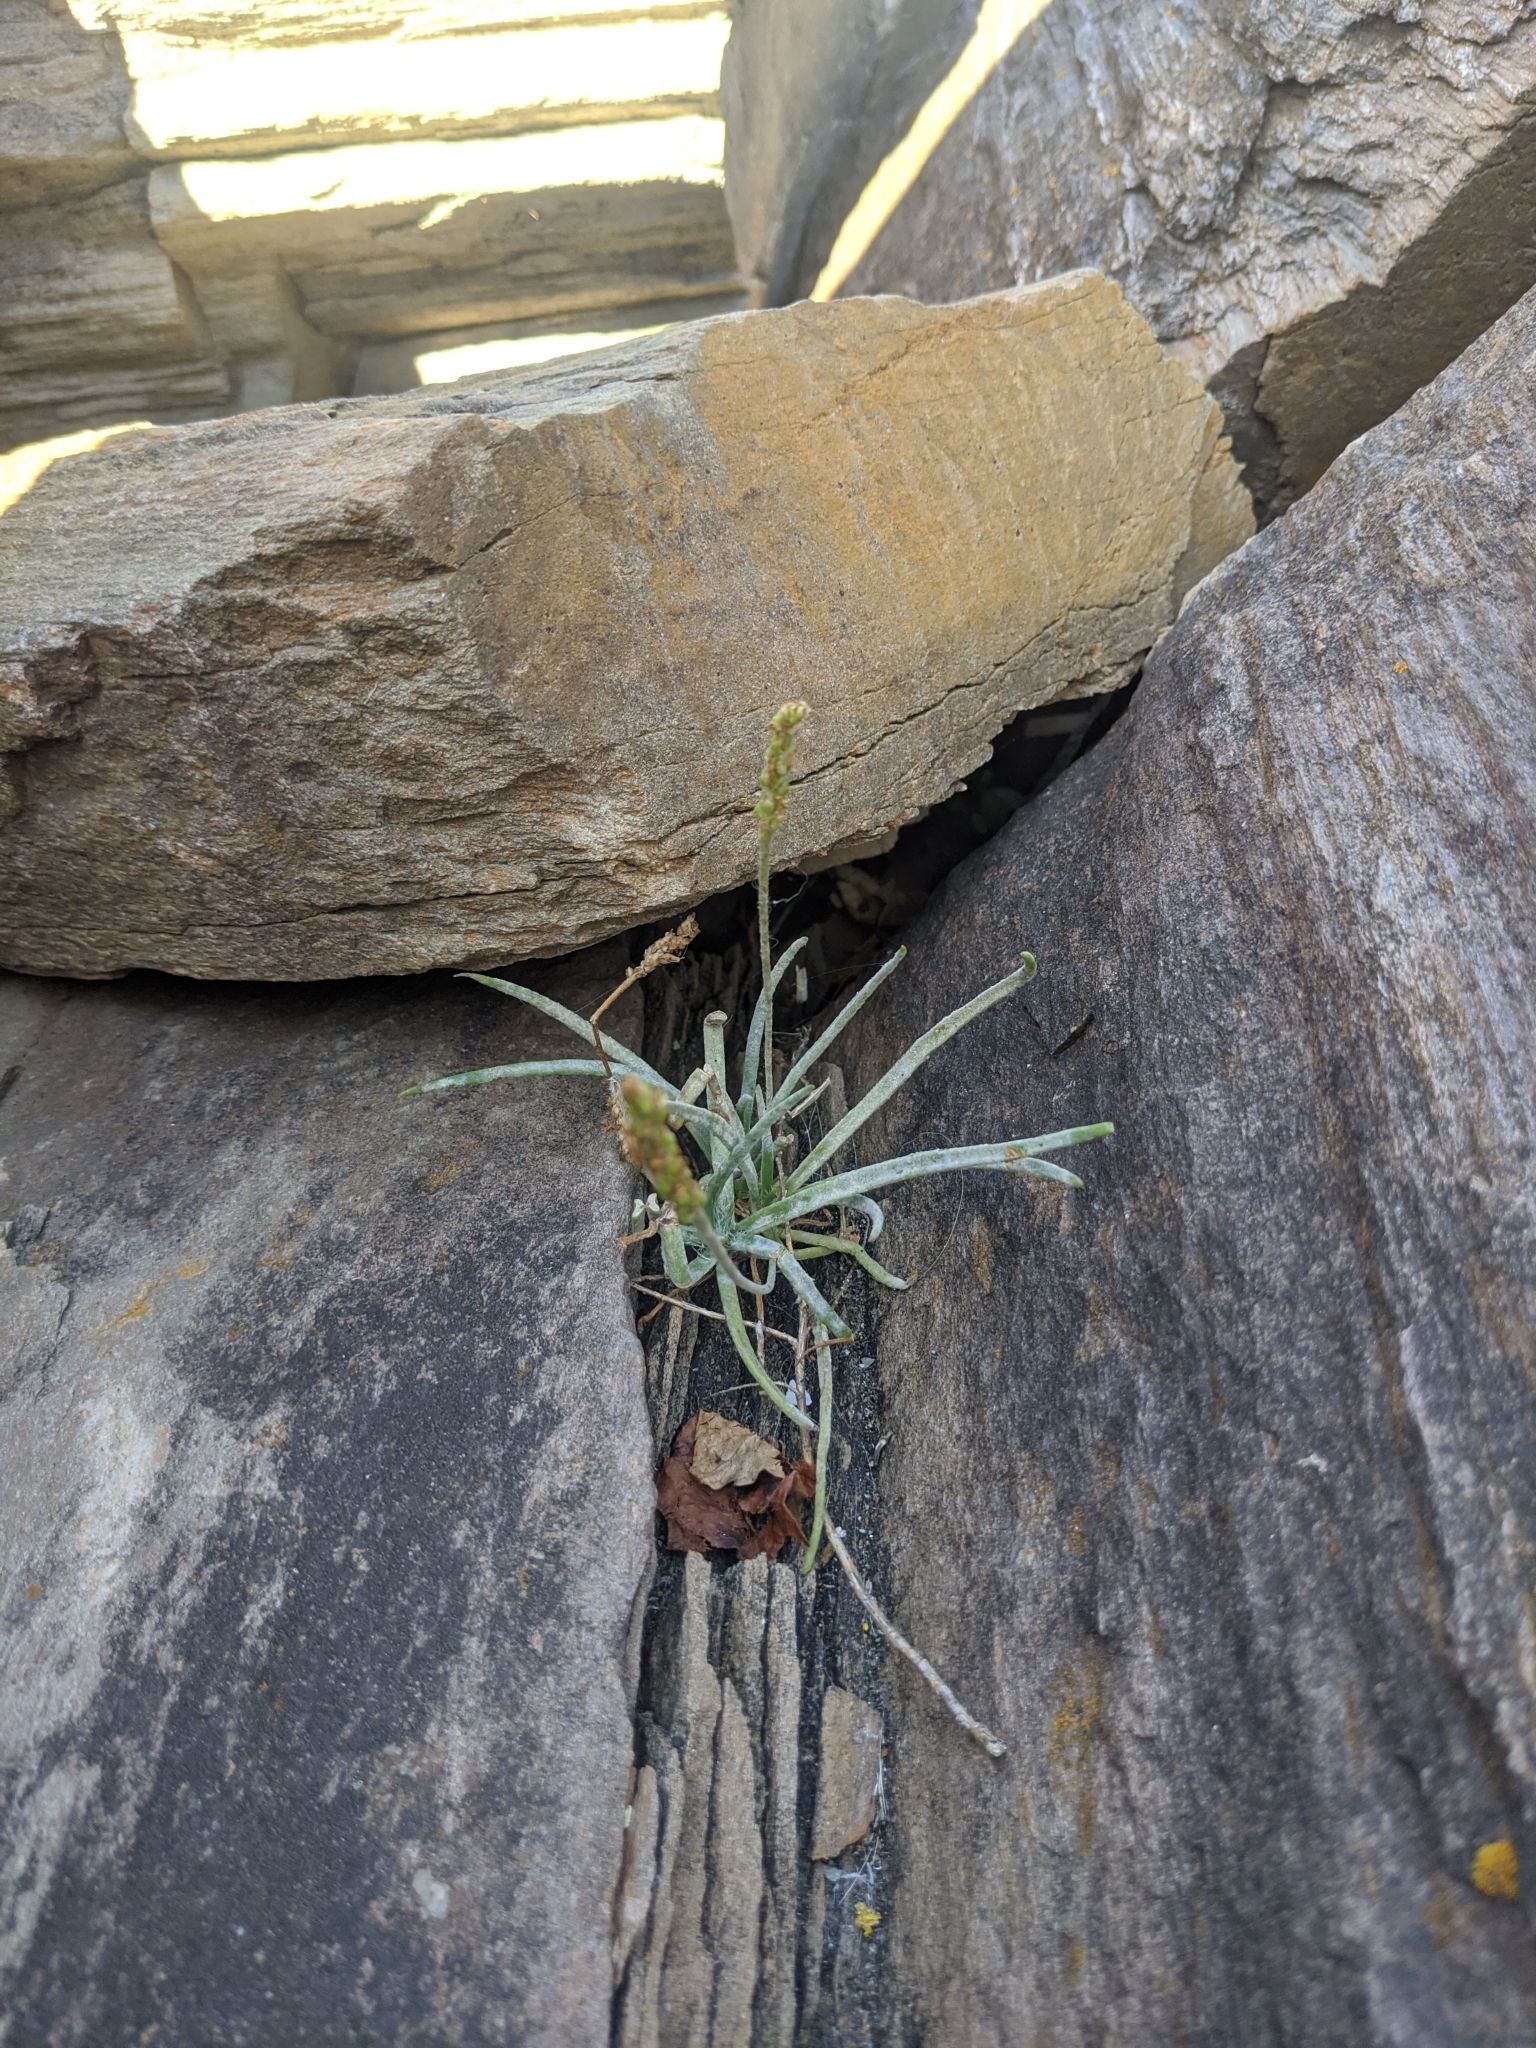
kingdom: Plantae
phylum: Tracheophyta
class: Magnoliopsida
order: Lamiales
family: Plantaginaceae
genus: Plantago
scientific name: Plantago maritima
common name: Sea plantain
